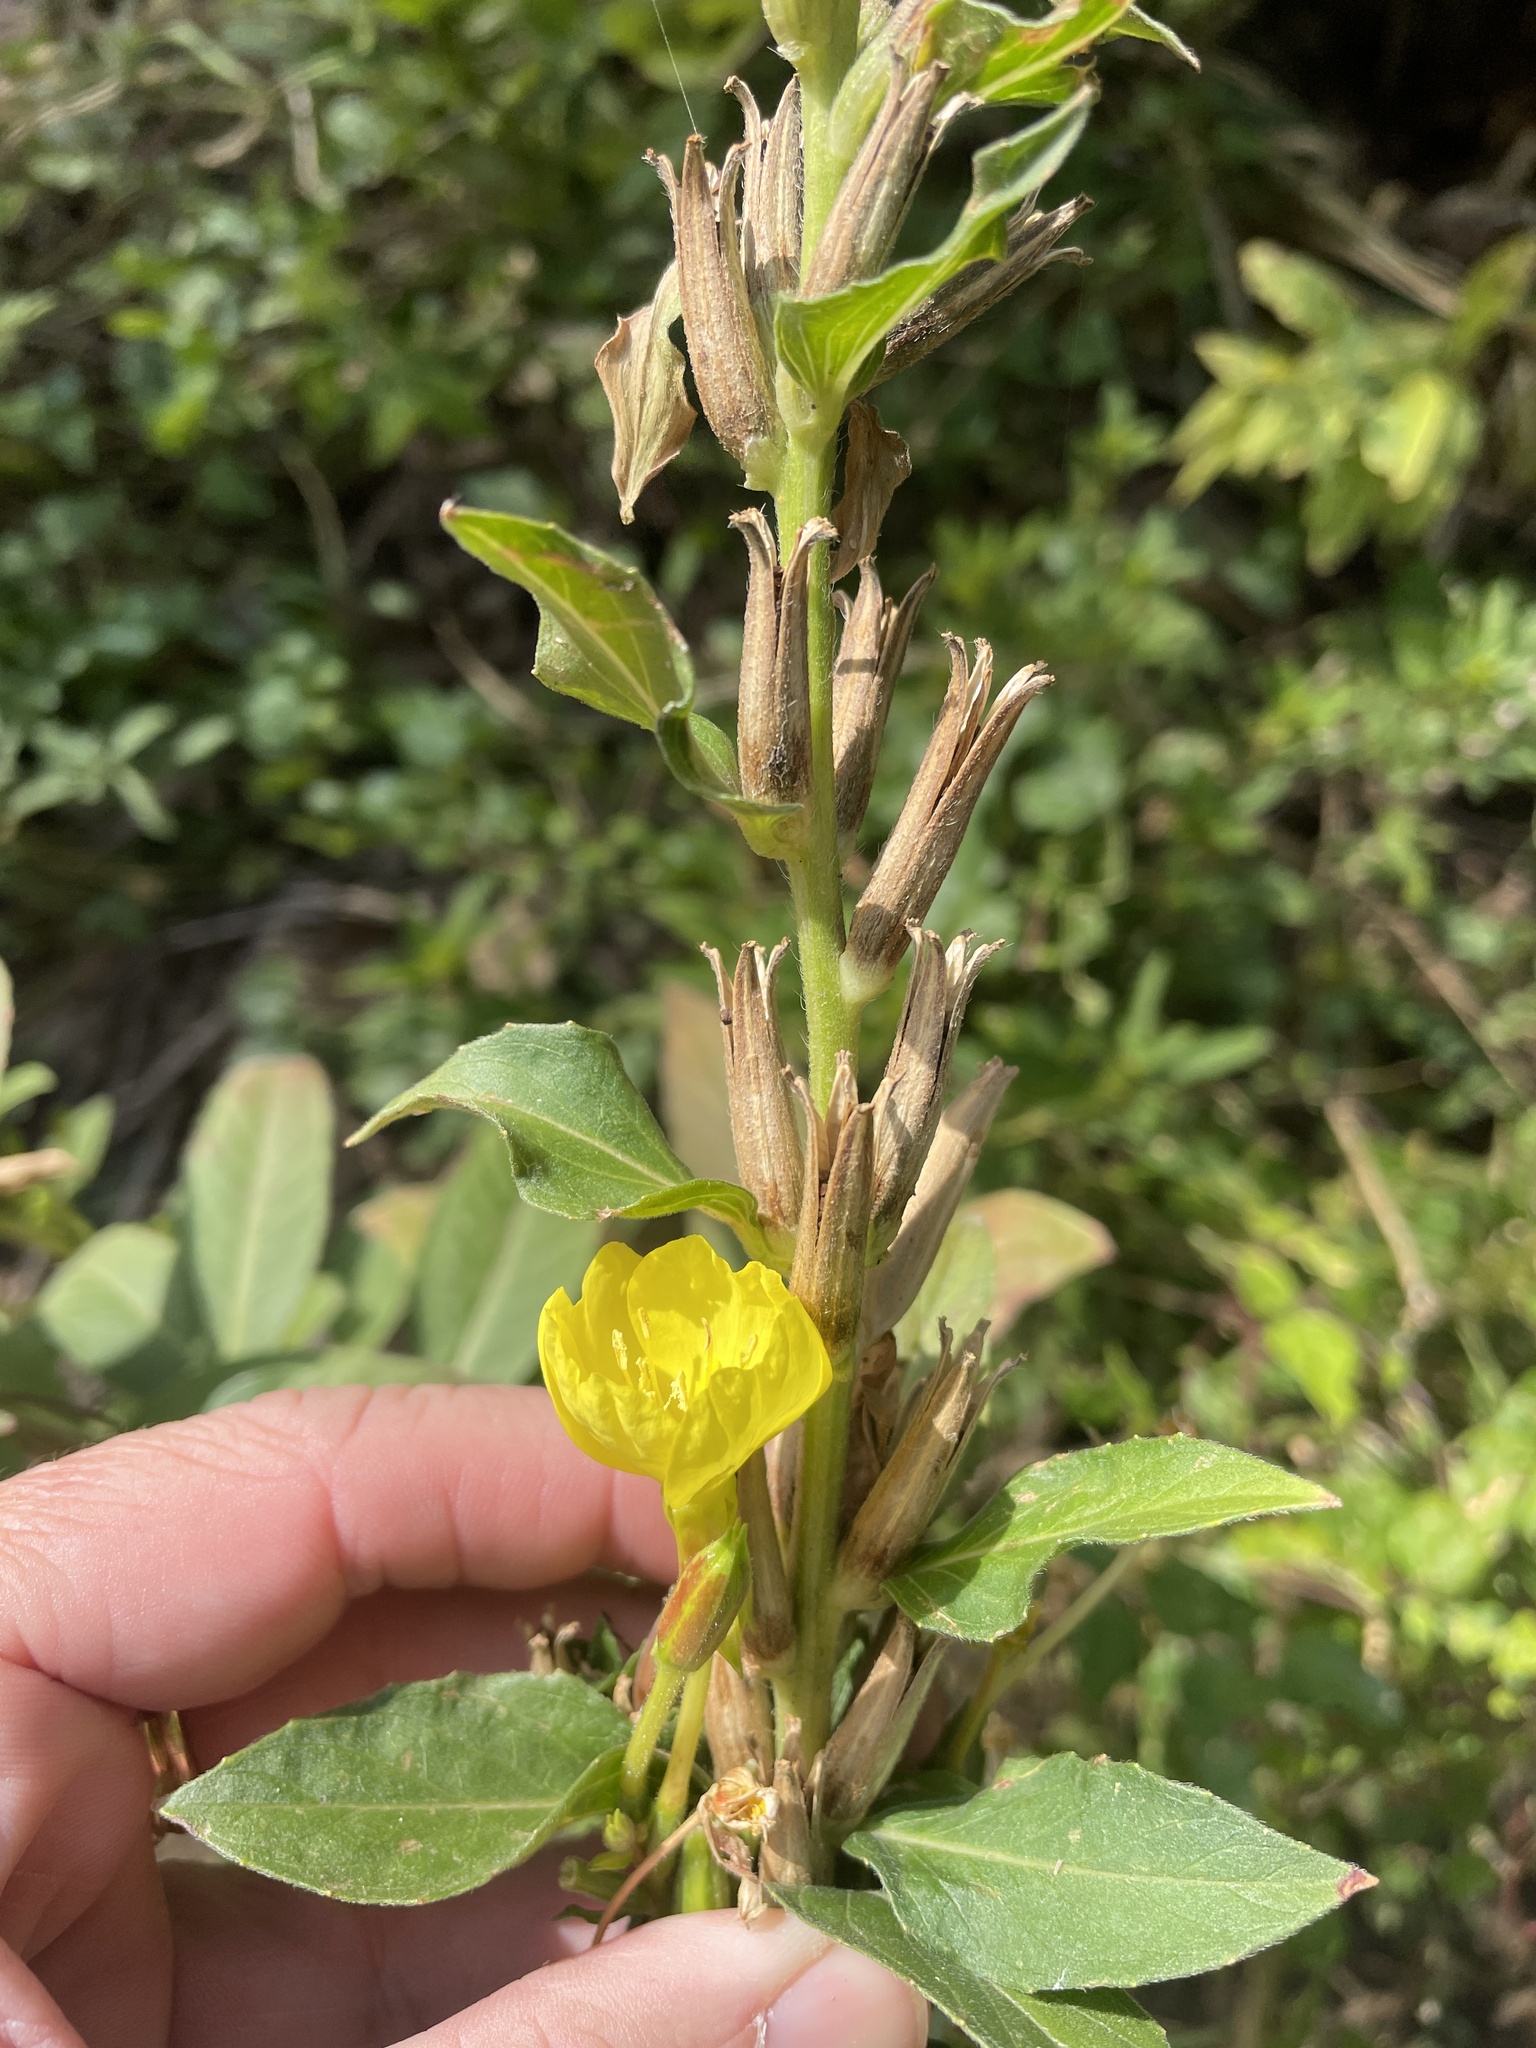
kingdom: Plantae
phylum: Tracheophyta
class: Magnoliopsida
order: Myrtales
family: Onagraceae
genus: Oenothera
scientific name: Oenothera biennis
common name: Common evening-primrose
